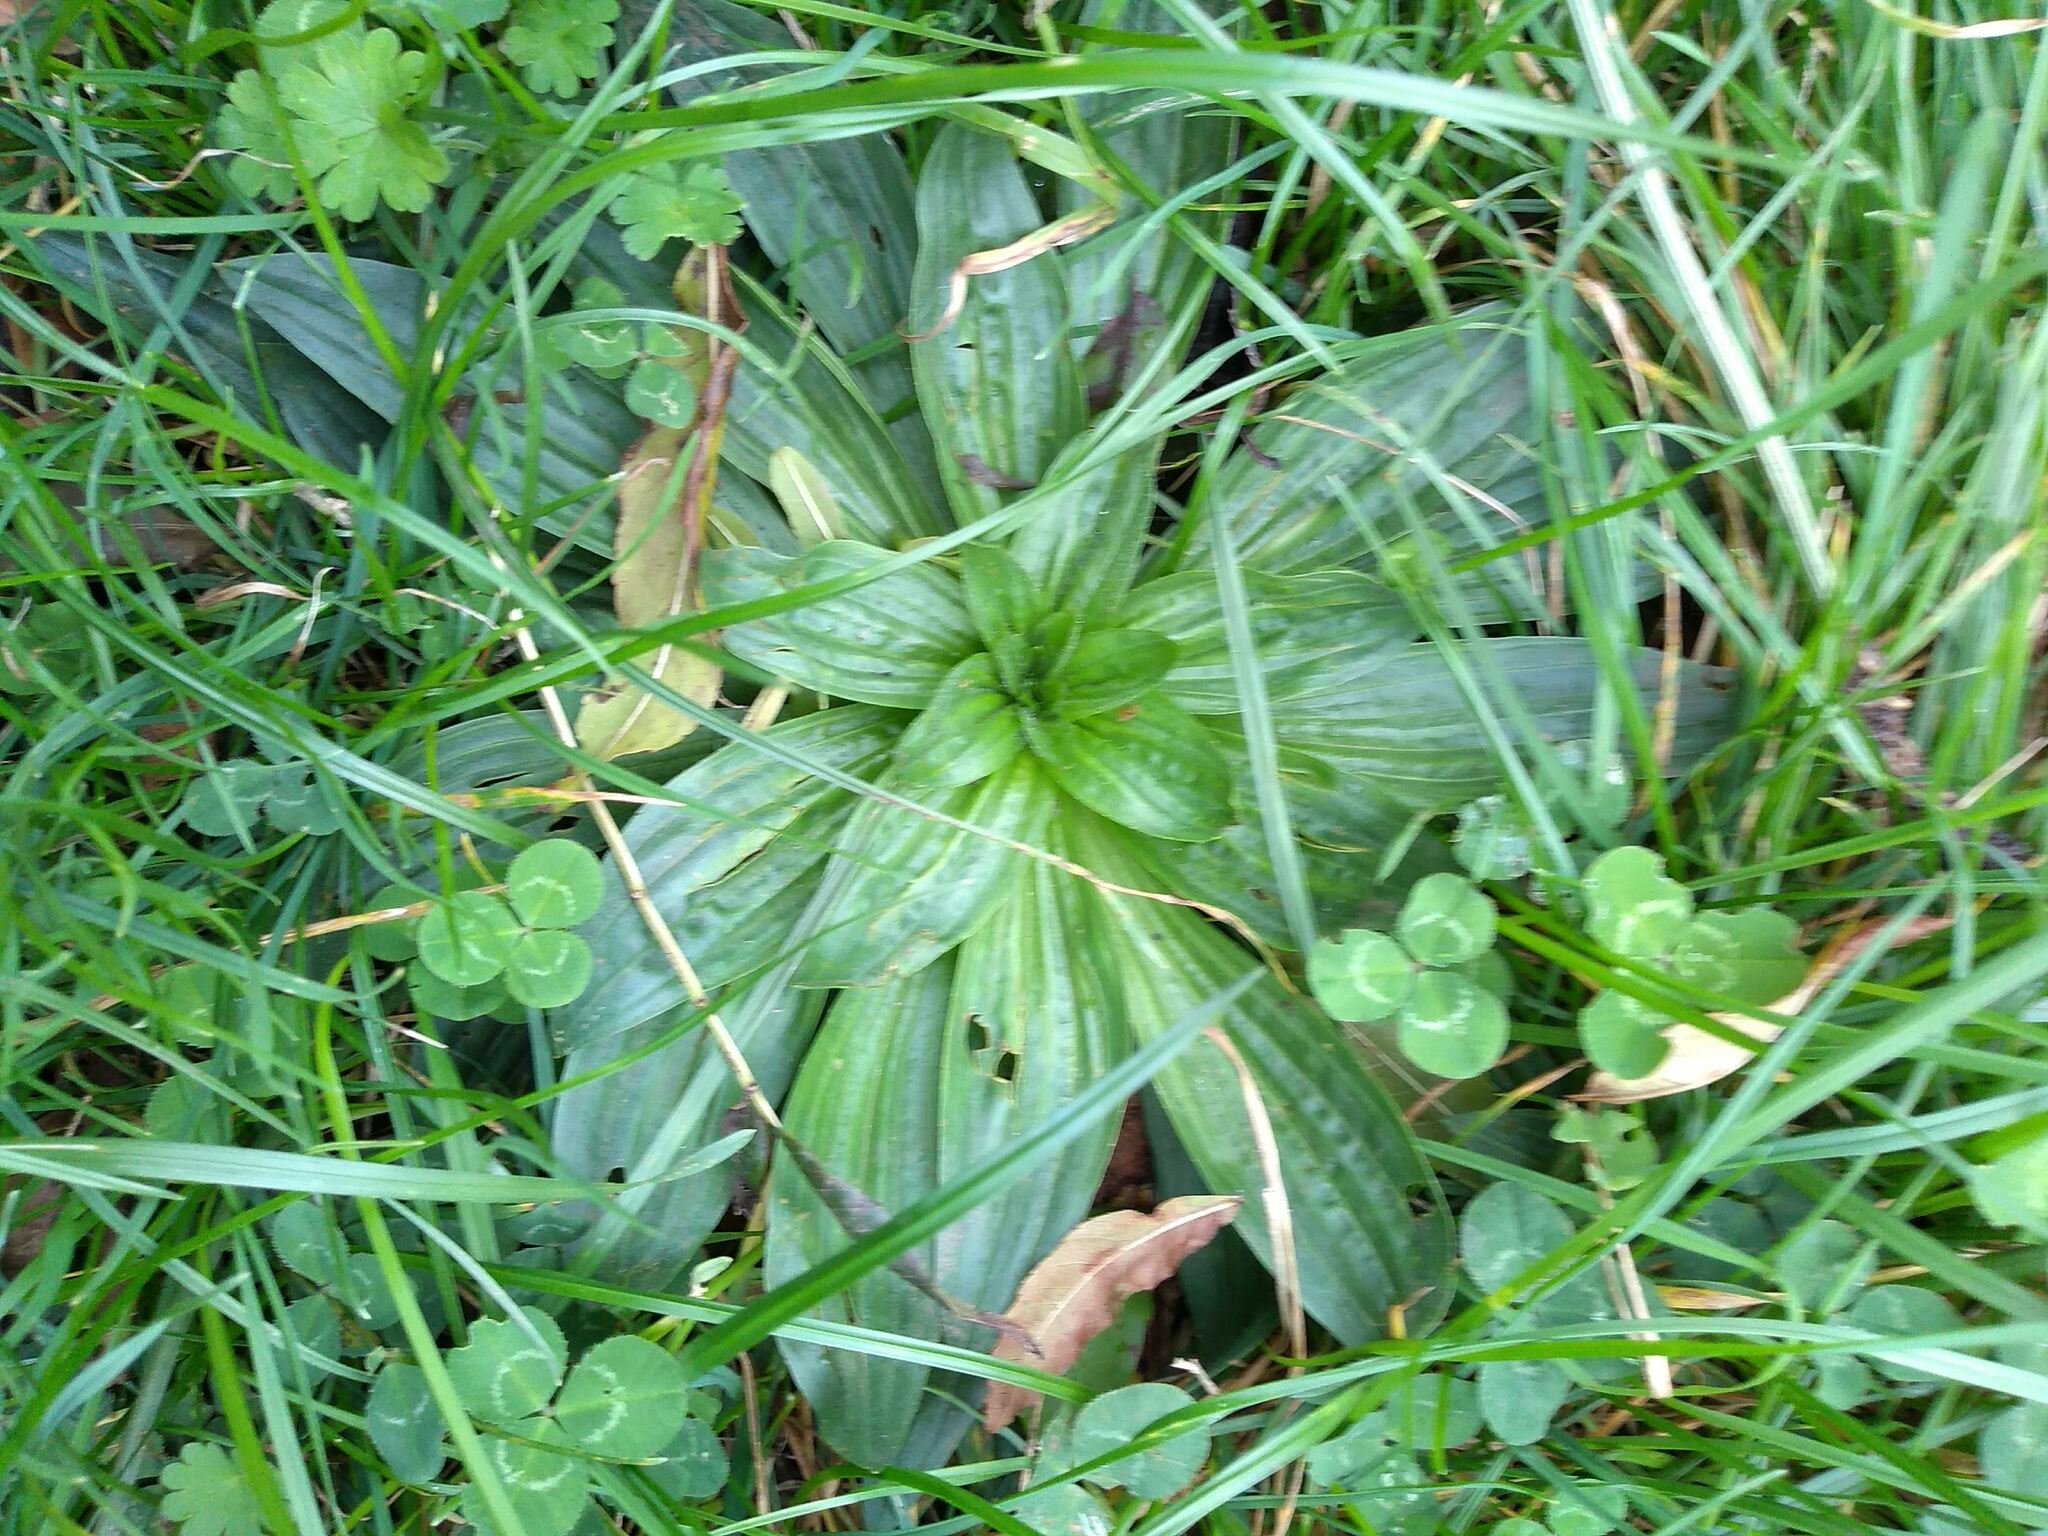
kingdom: Plantae
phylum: Tracheophyta
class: Magnoliopsida
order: Lamiales
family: Plantaginaceae
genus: Plantago
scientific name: Plantago lanceolata
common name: Ribwort plantain
